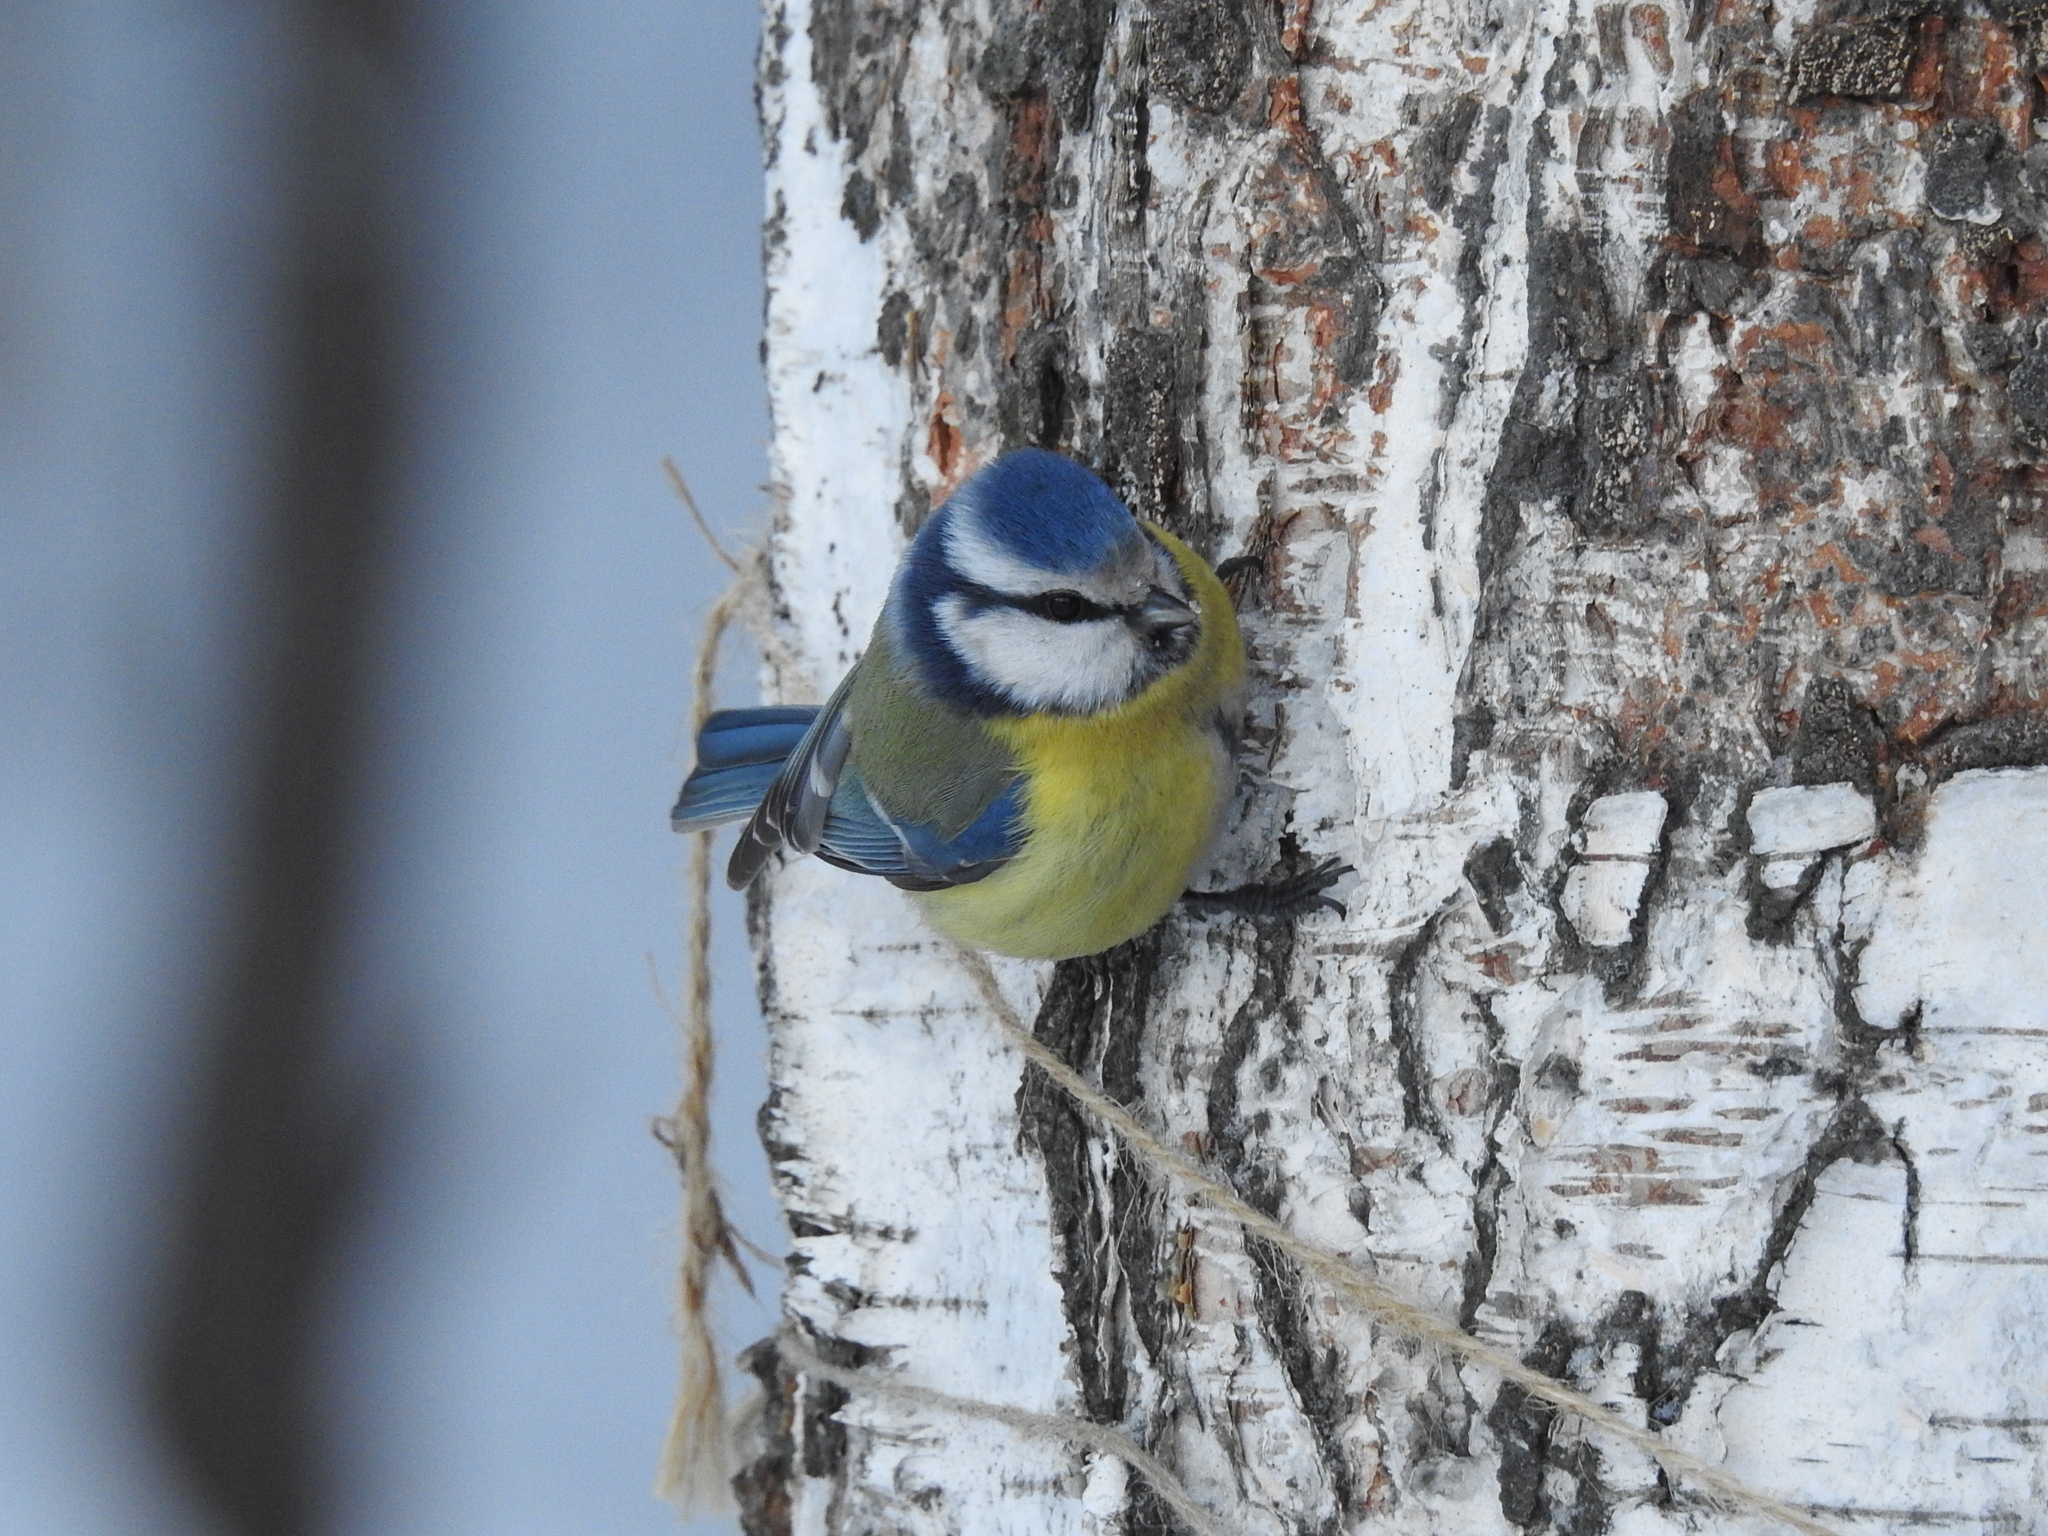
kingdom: Animalia
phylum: Chordata
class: Aves
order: Passeriformes
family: Paridae
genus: Cyanistes
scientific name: Cyanistes caeruleus
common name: Eurasian blue tit
